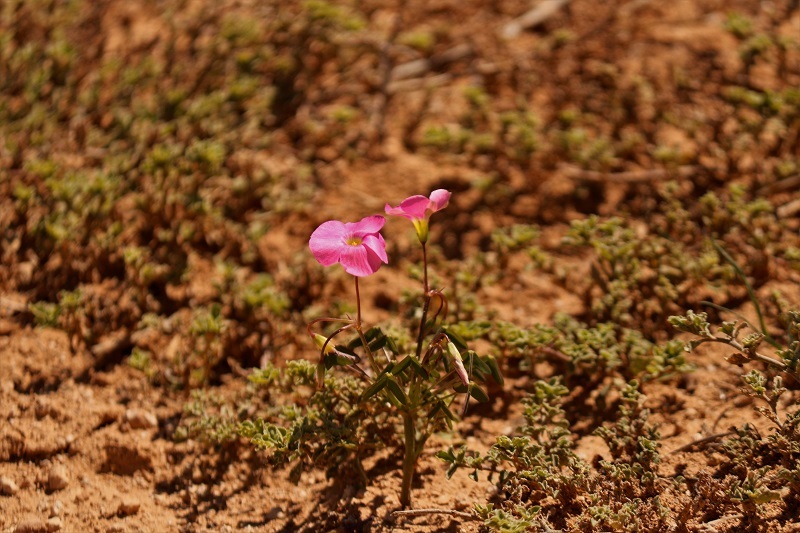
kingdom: Plantae
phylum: Tracheophyta
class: Magnoliopsida
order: Oxalidales
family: Oxalidaceae
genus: Oxalis
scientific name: Oxalis stellata
